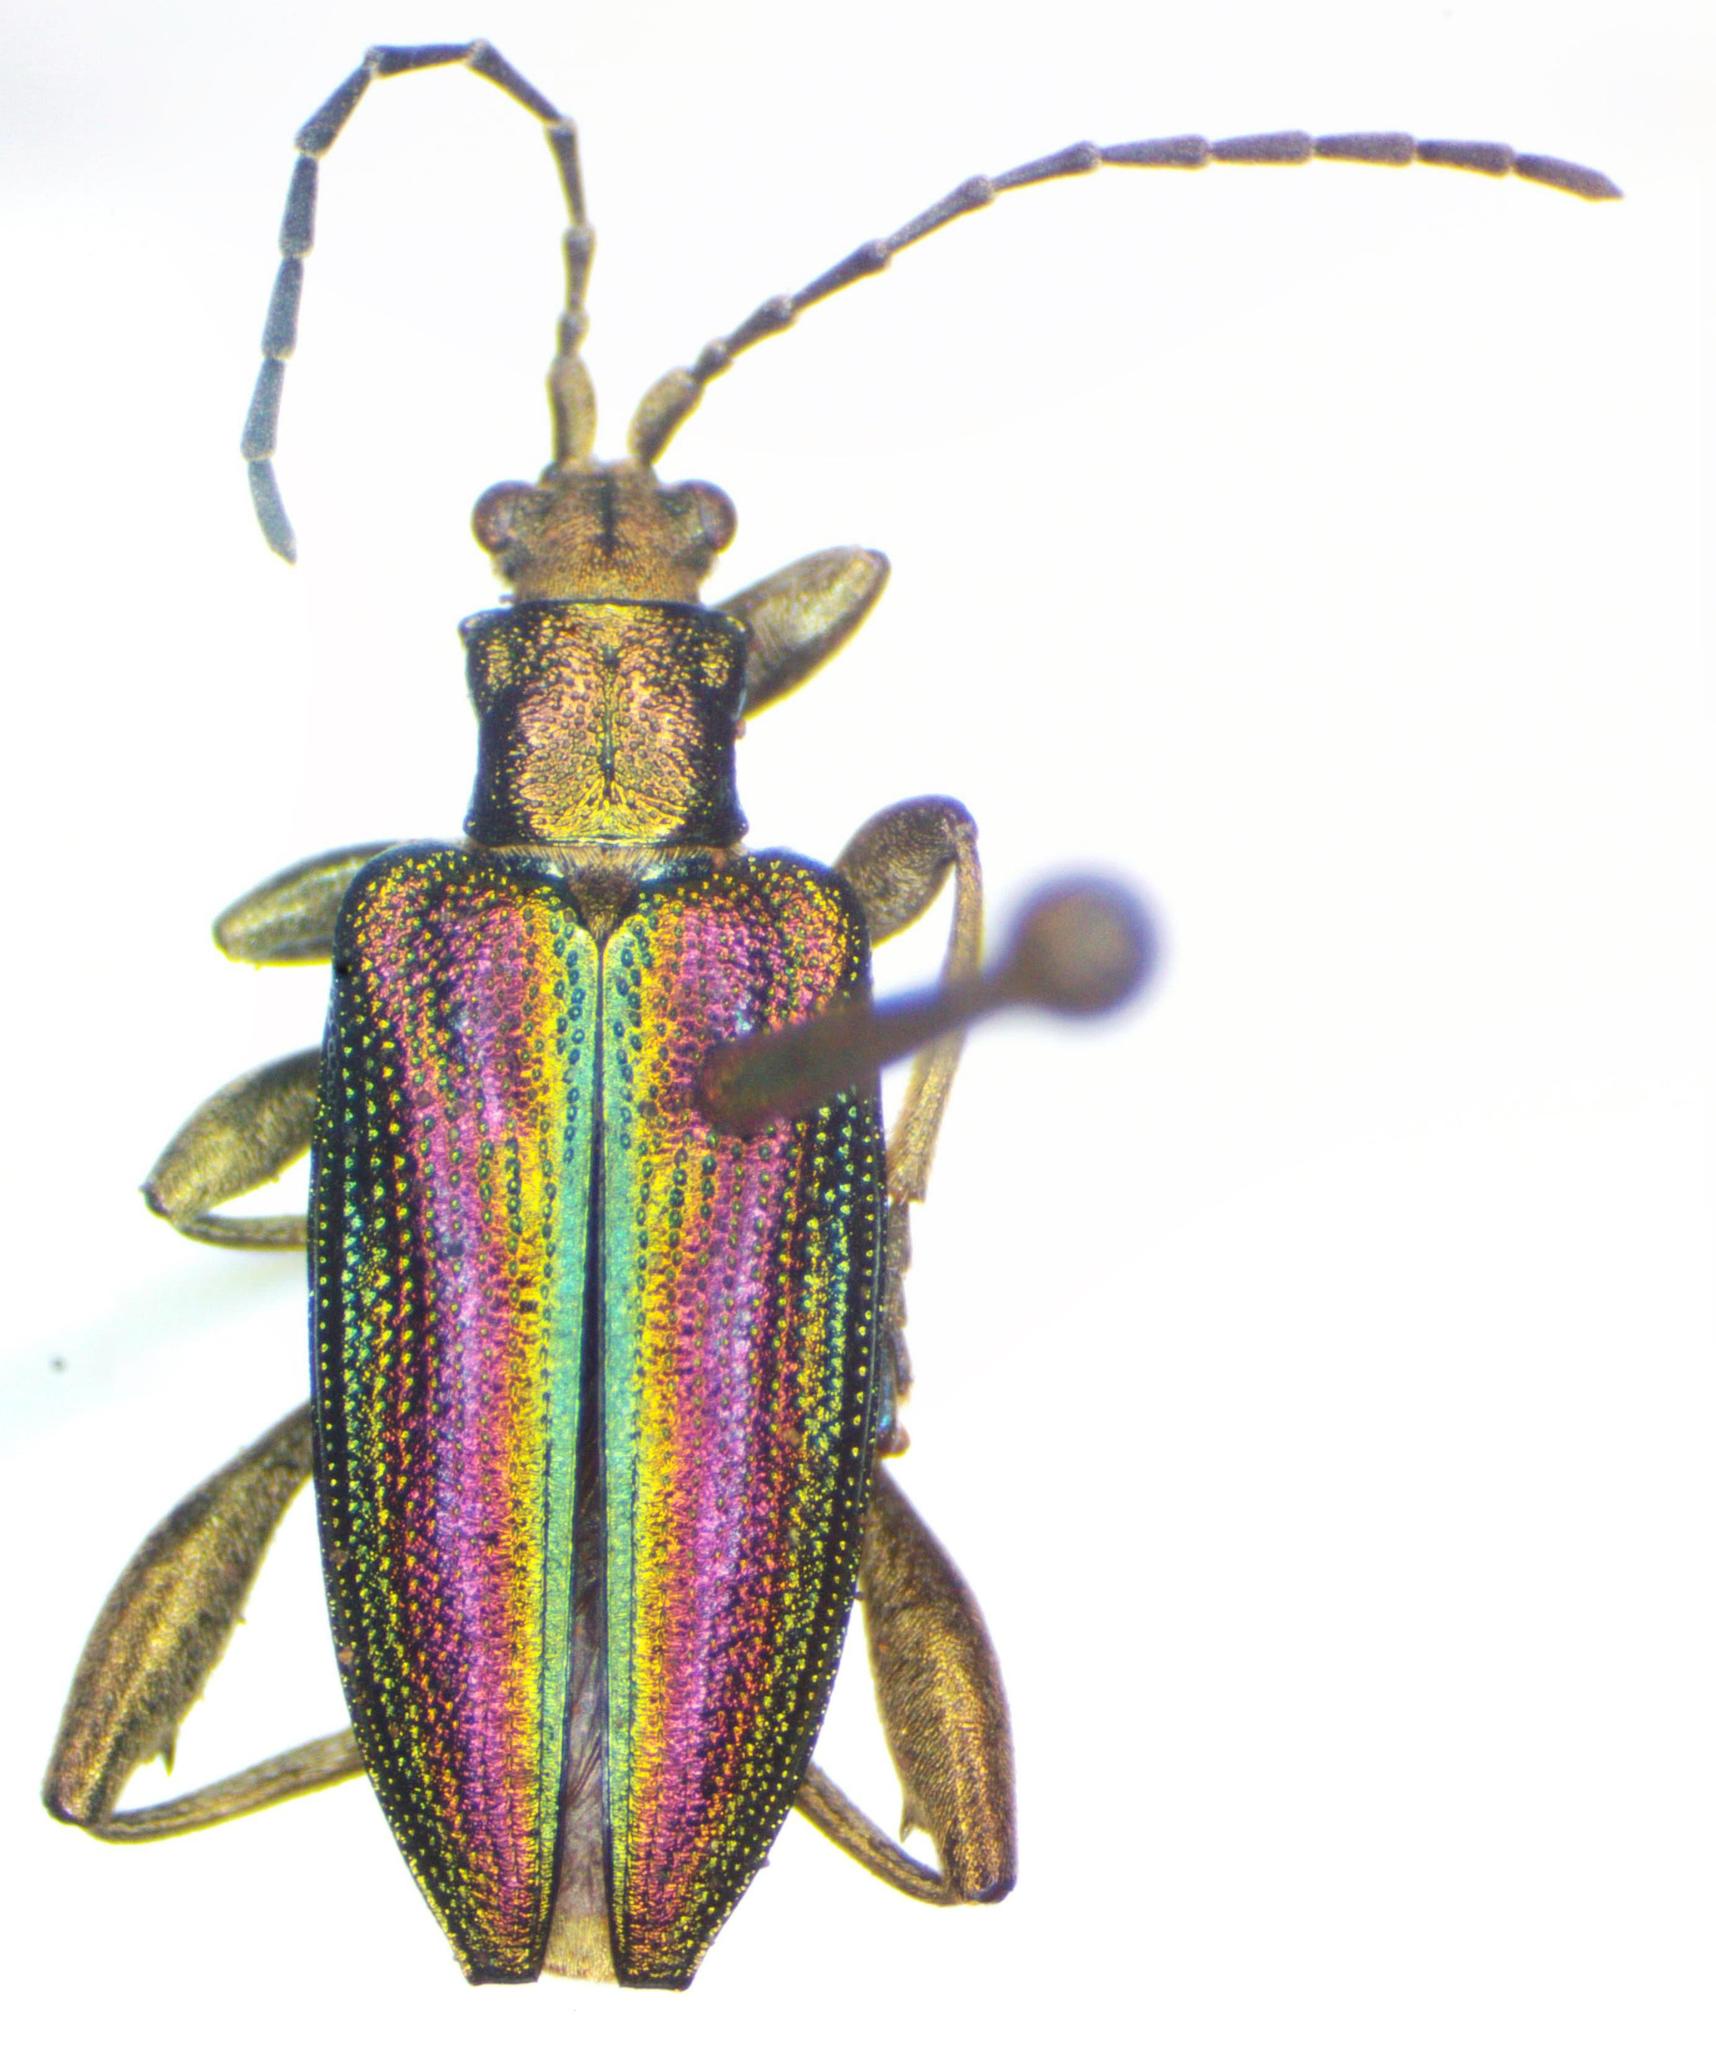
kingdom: Animalia
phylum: Arthropoda
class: Insecta
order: Coleoptera
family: Chrysomelidae
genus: Donacia
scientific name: Donacia aquatica
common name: Zircon reed beetle
